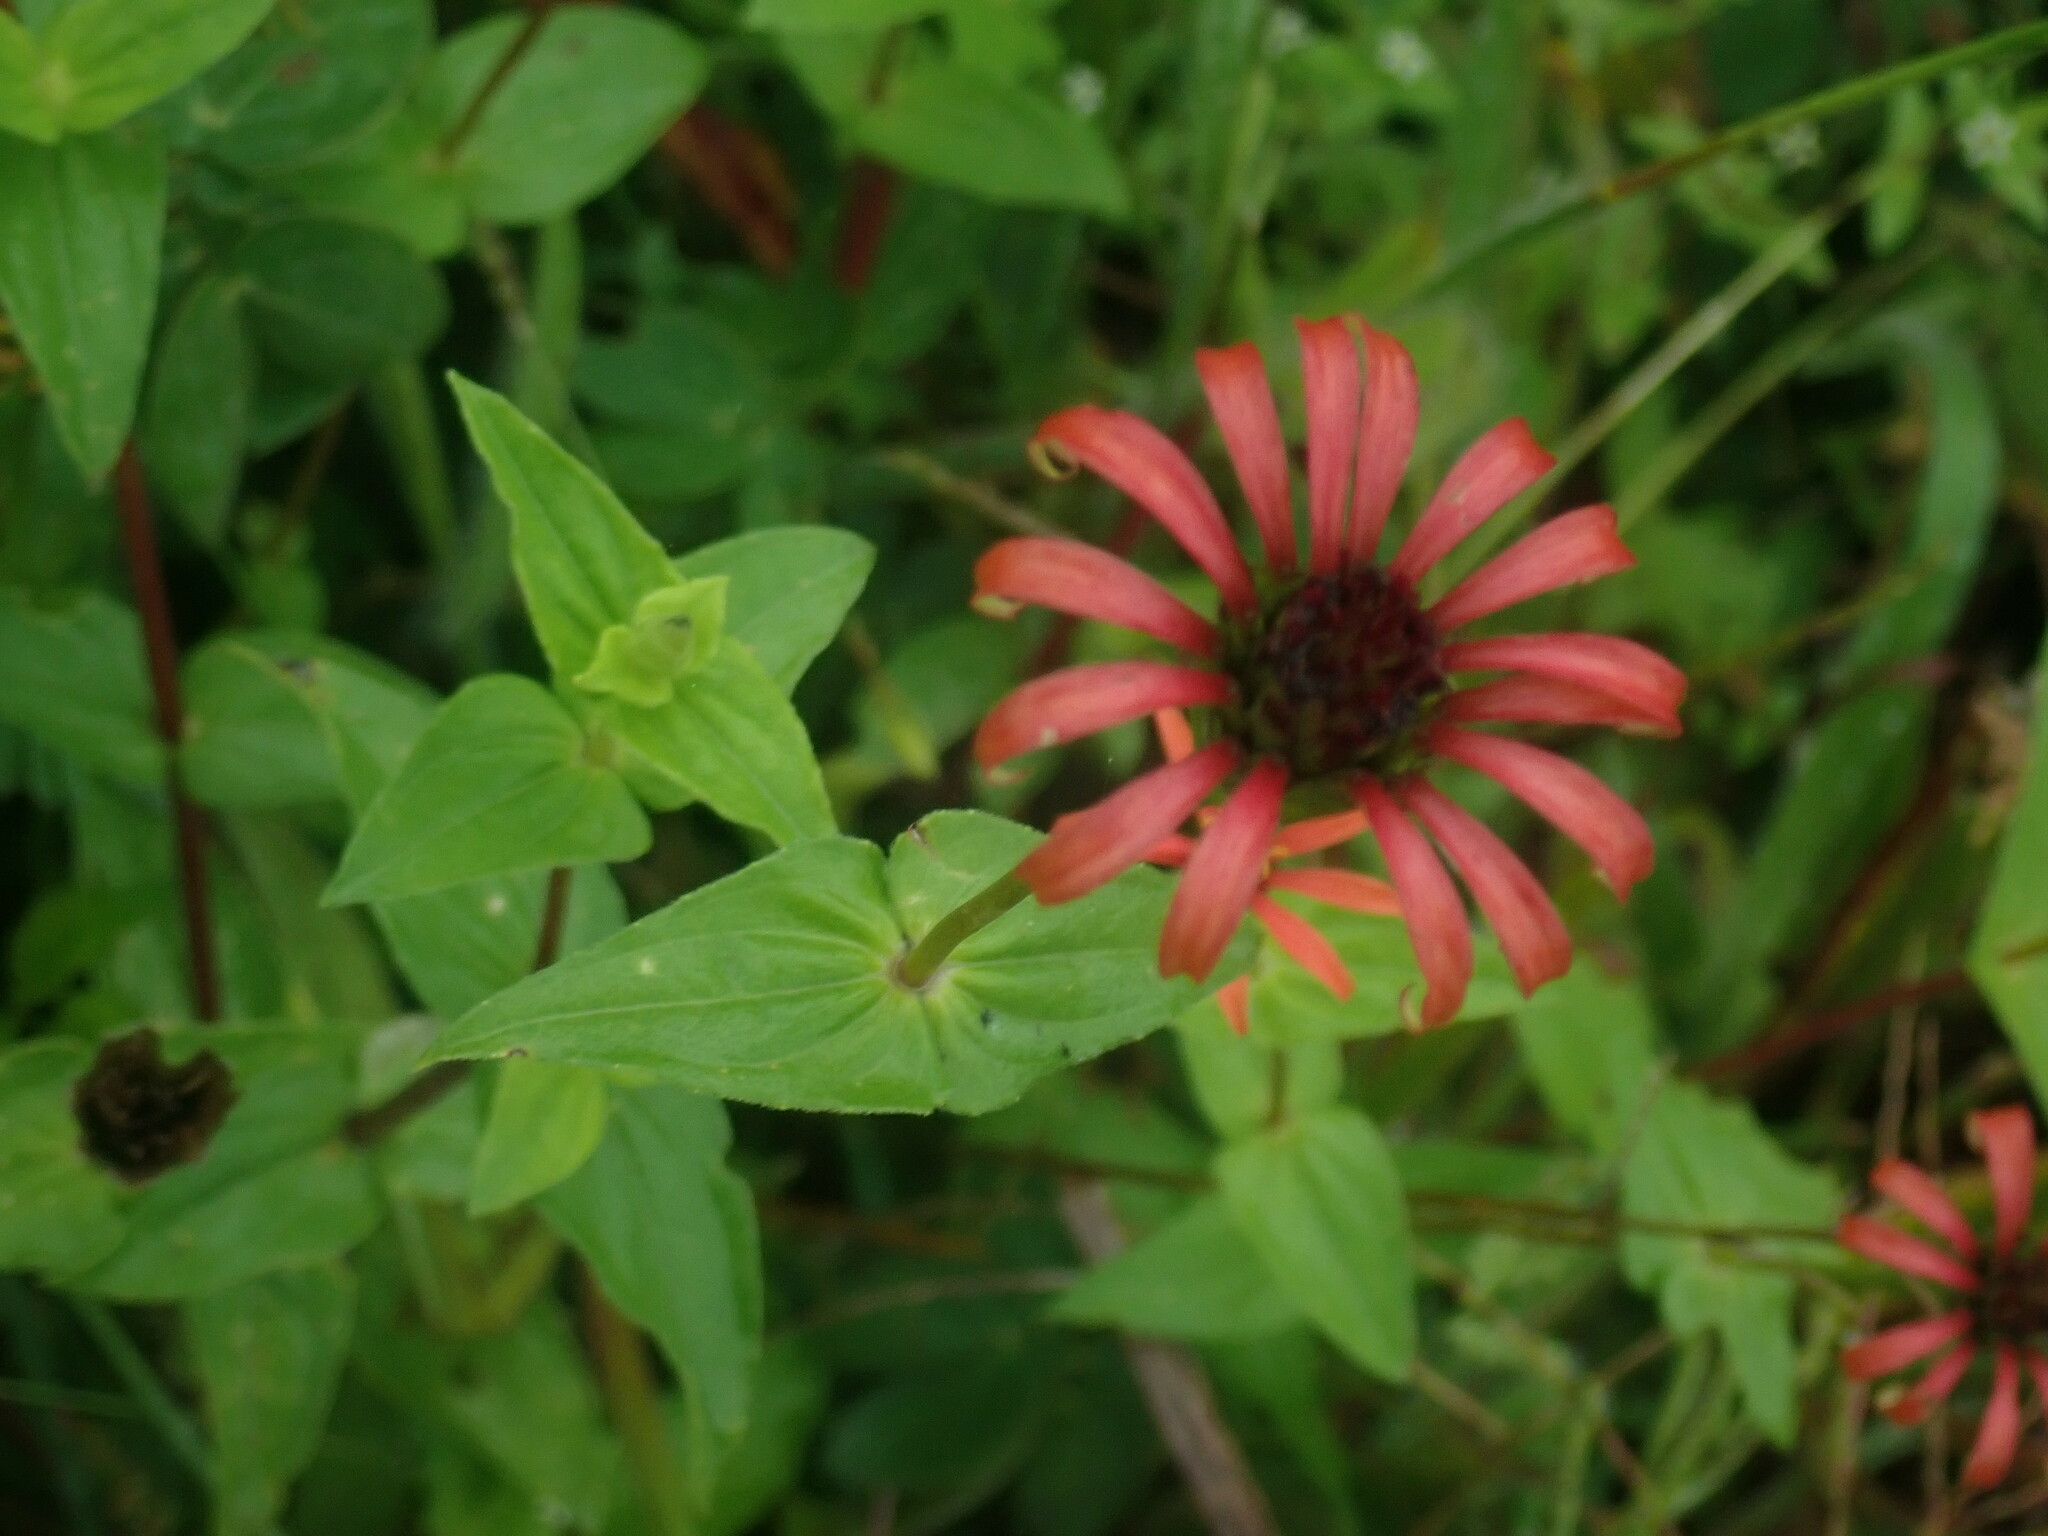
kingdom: Plantae
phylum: Tracheophyta
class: Magnoliopsida
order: Asterales
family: Asteraceae
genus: Zinnia
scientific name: Zinnia peruviana
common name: Peruvian zinnia
